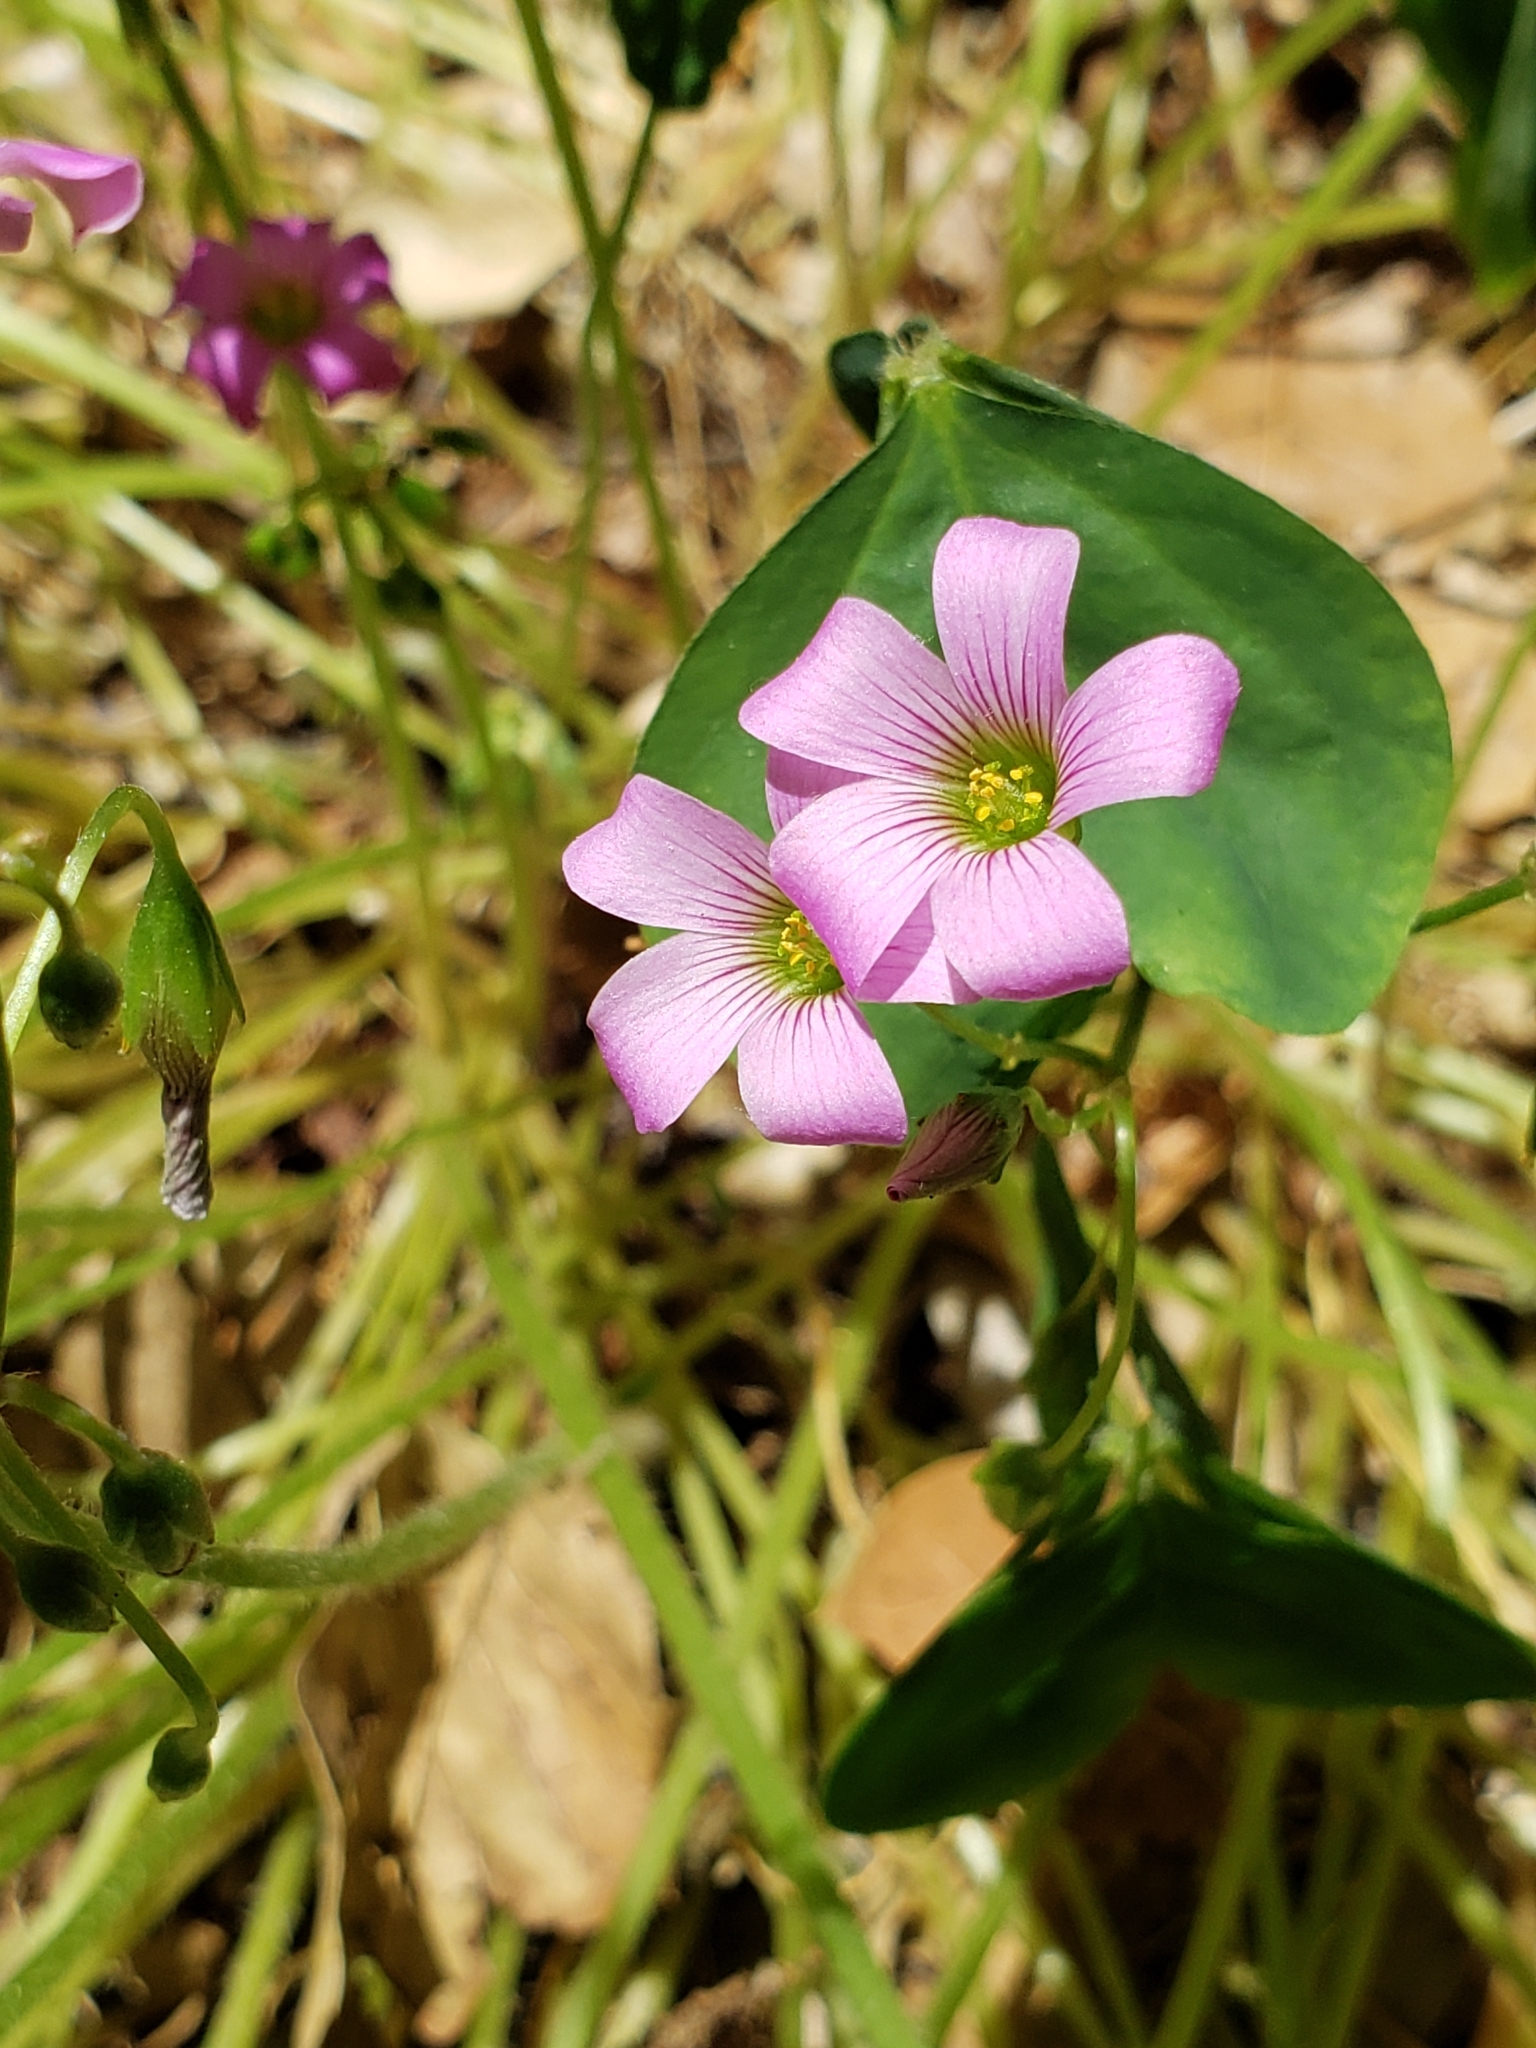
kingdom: Plantae
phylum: Tracheophyta
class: Magnoliopsida
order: Oxalidales
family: Oxalidaceae
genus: Oxalis
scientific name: Oxalis debilis
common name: Large-flowered pink-sorrel
